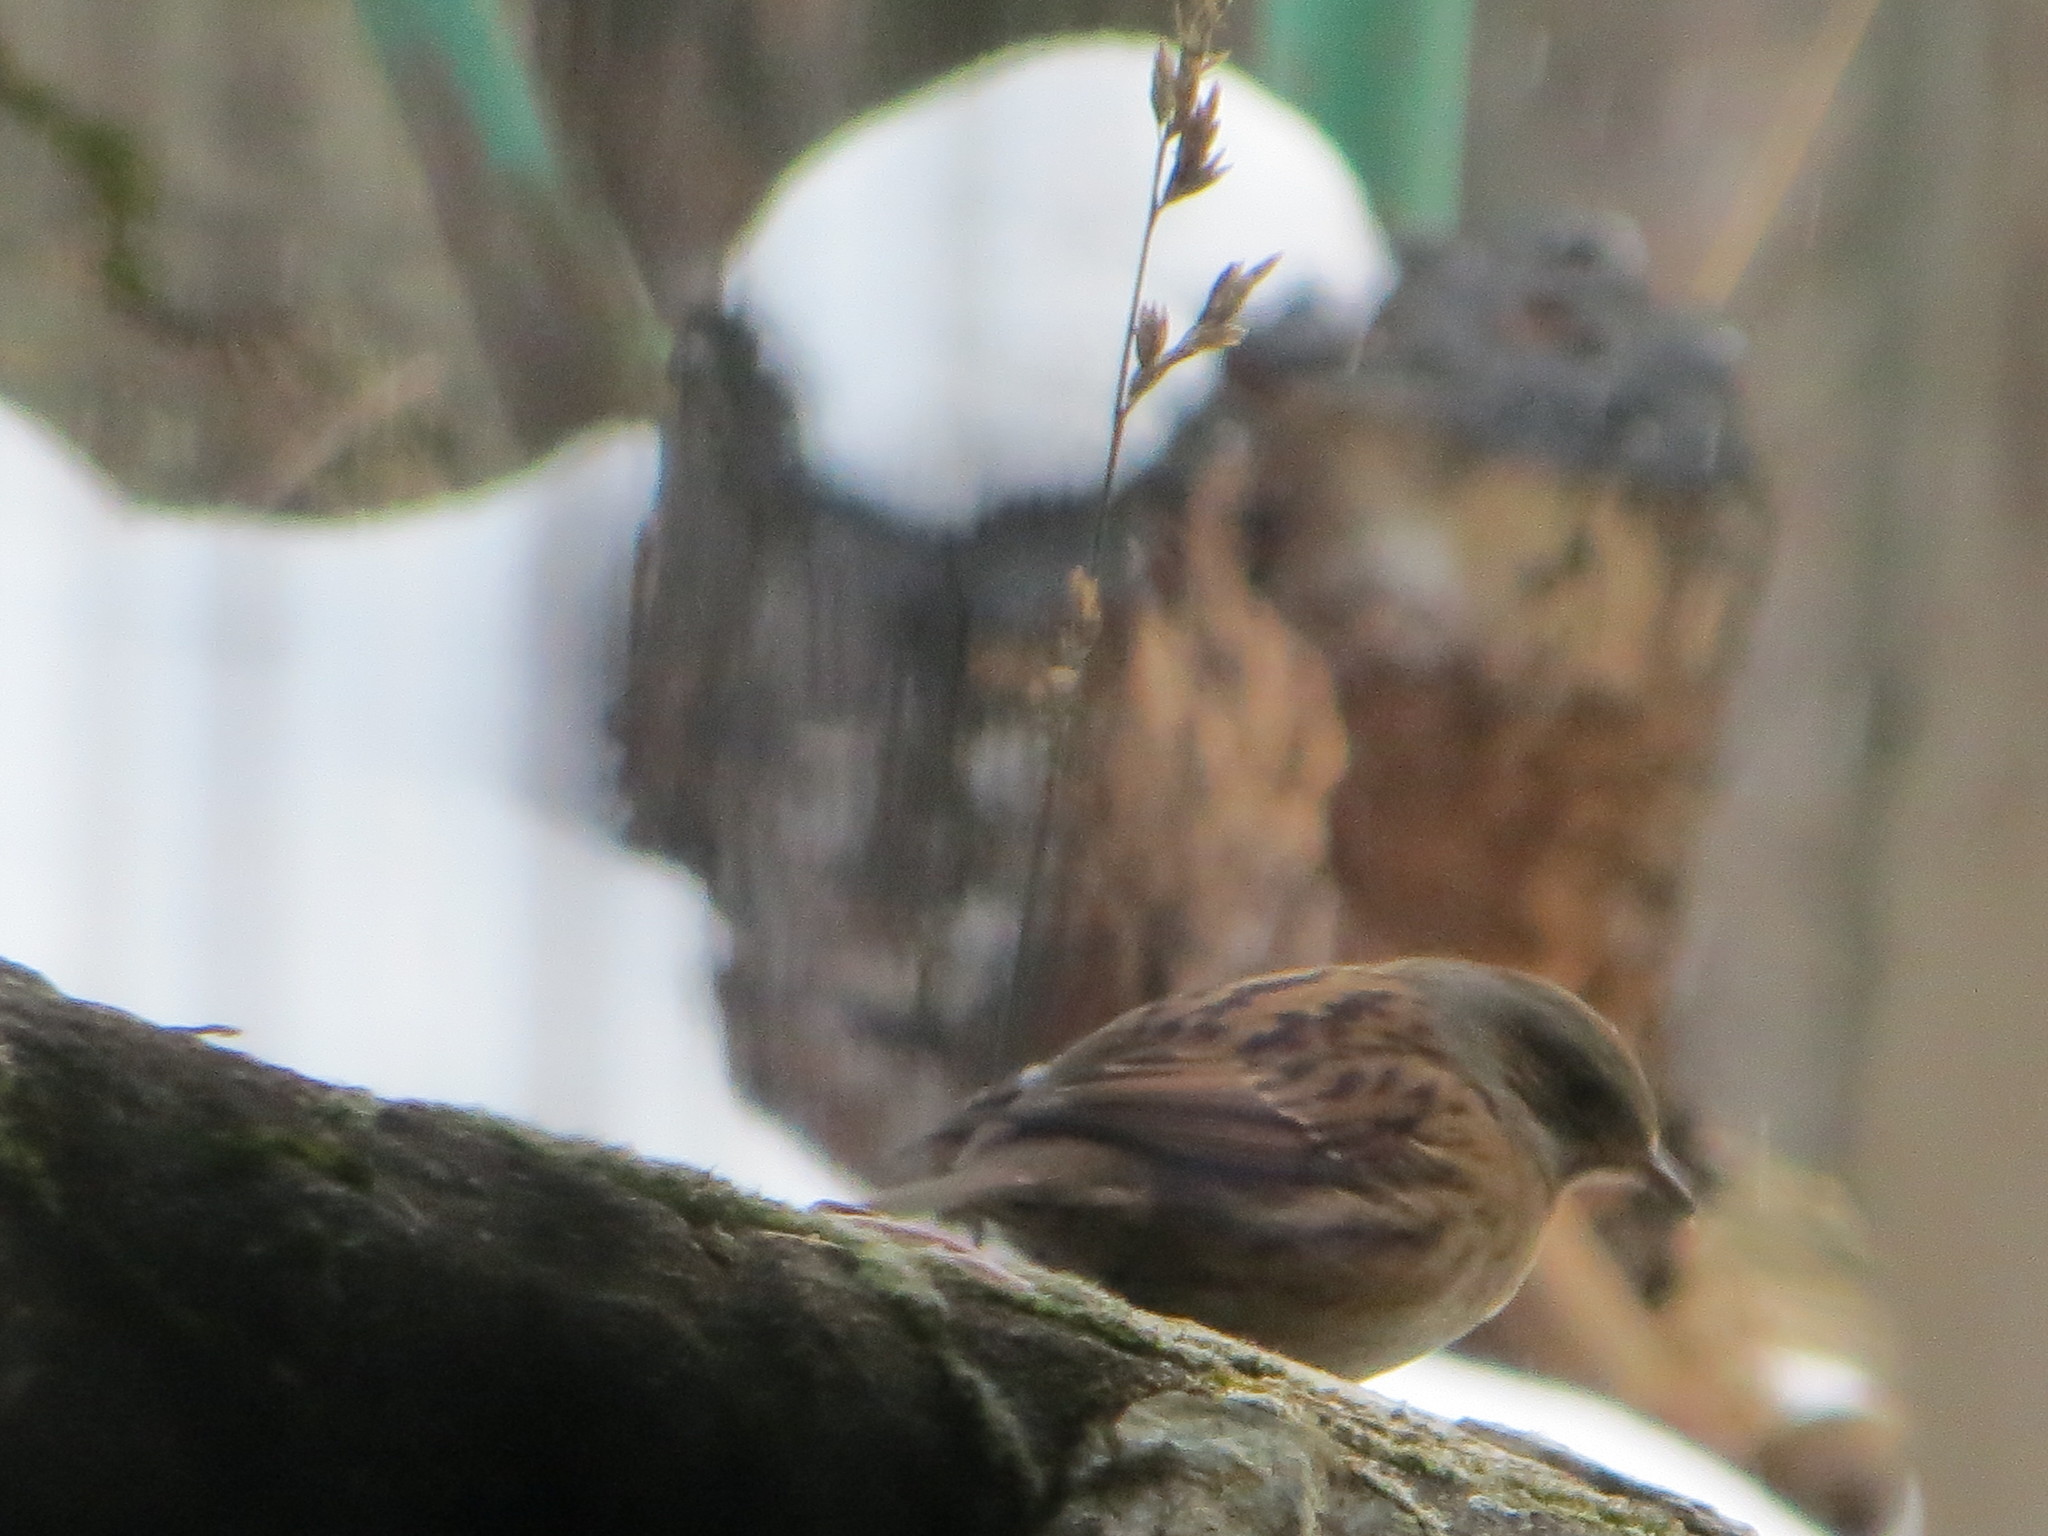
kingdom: Animalia
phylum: Chordata
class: Aves
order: Passeriformes
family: Prunellidae
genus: Prunella
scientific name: Prunella modularis
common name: Dunnock
